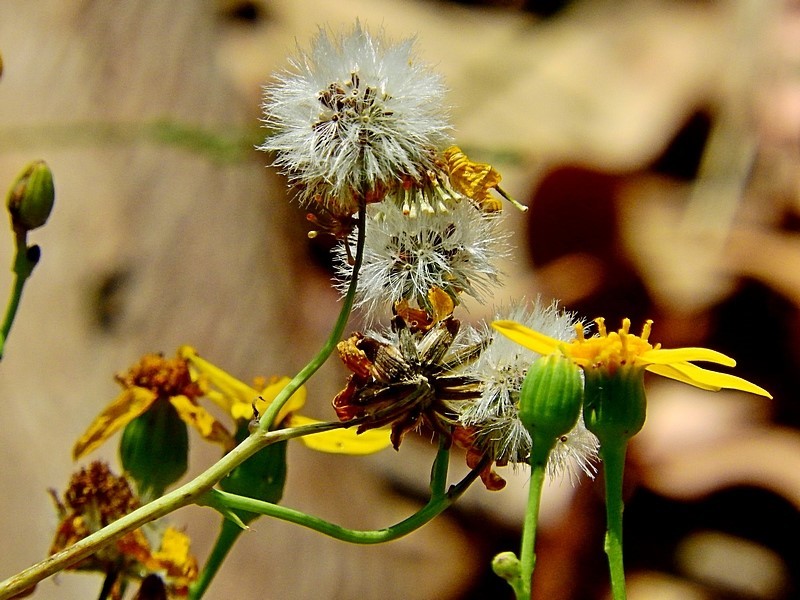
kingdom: Plantae
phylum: Tracheophyta
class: Magnoliopsida
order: Asterales
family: Asteraceae
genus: Lordhowea
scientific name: Lordhowea velleioides
